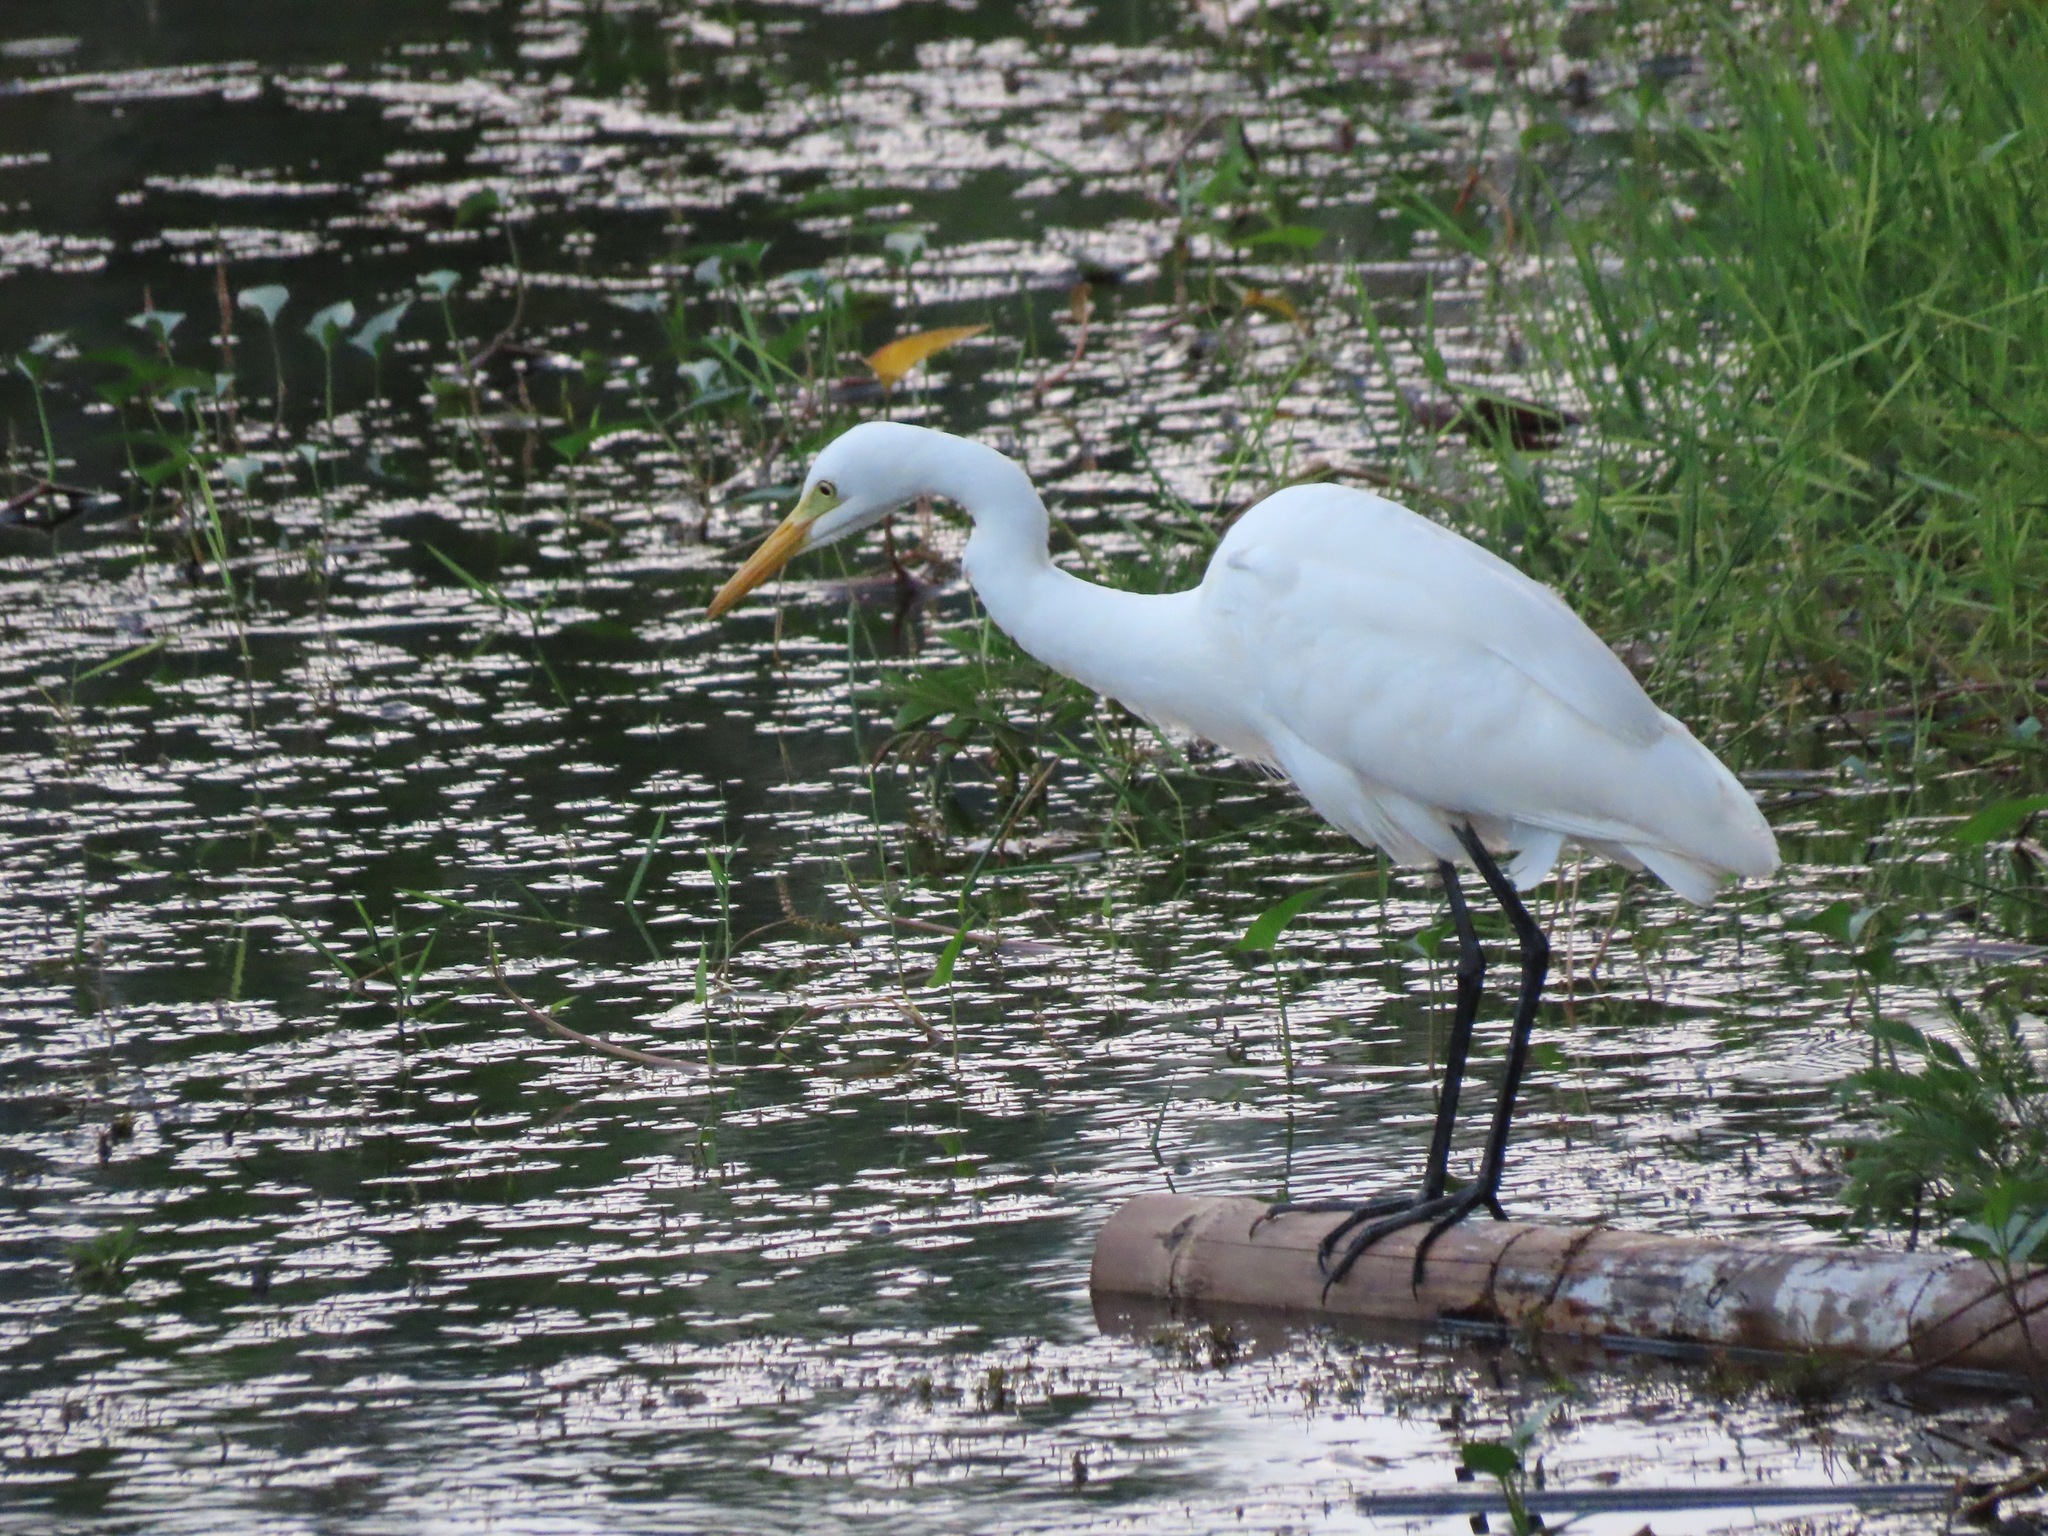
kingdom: Animalia
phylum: Chordata
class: Aves
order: Pelecaniformes
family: Ardeidae
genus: Egretta
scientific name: Egretta intermedia
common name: Intermediate egret
